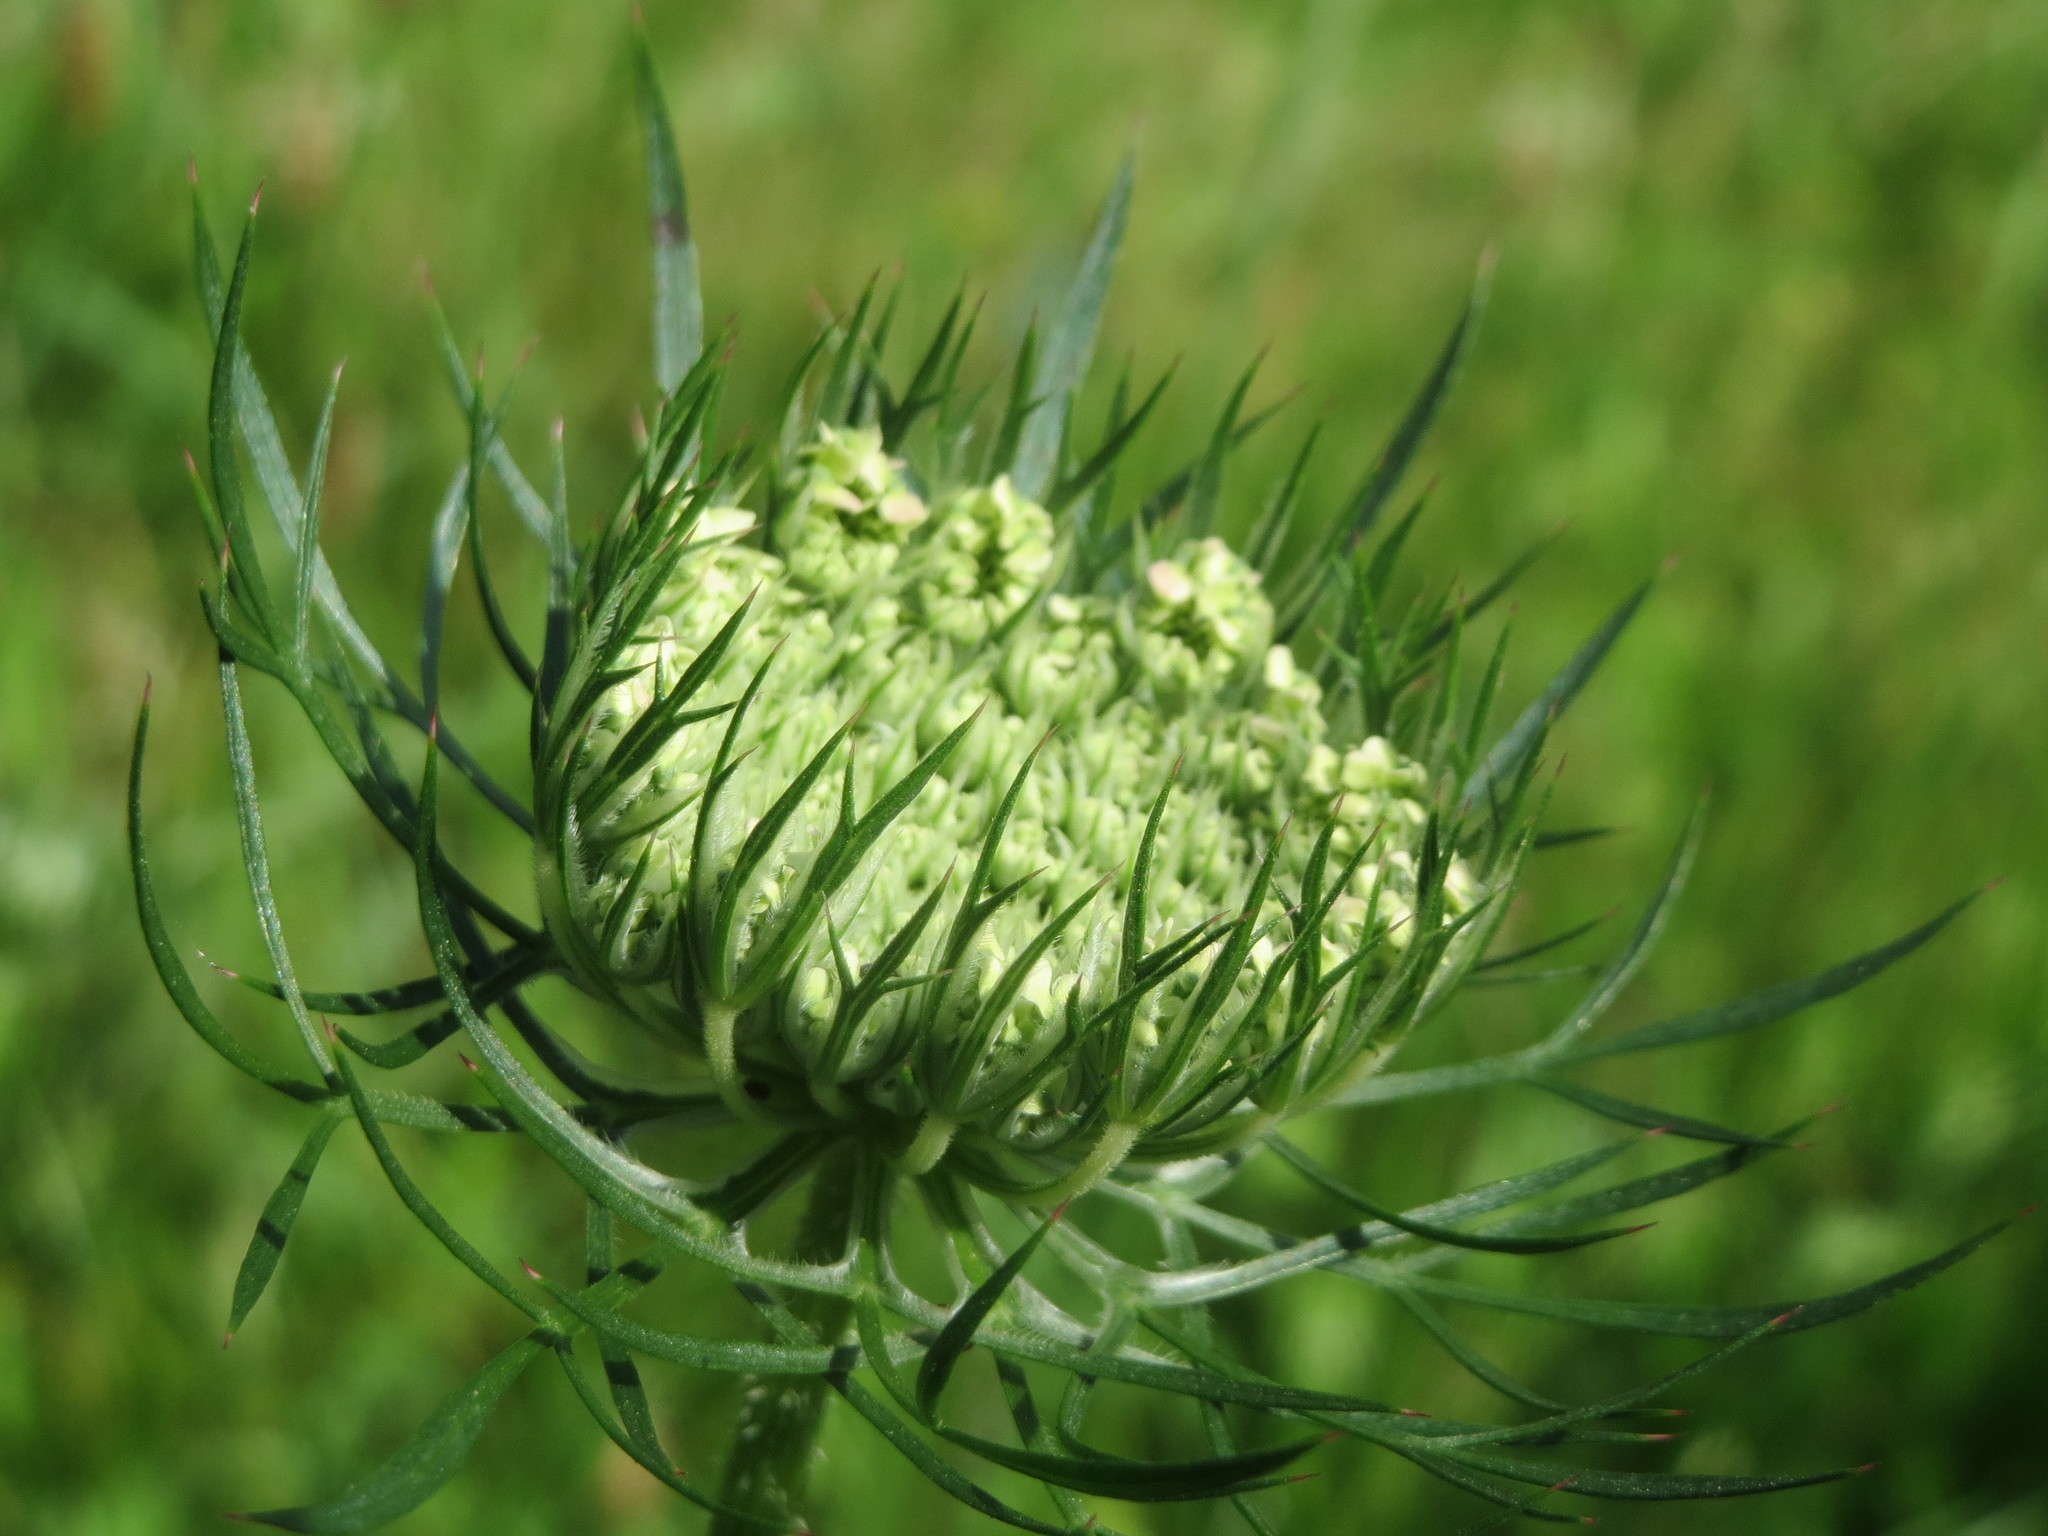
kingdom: Plantae
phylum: Tracheophyta
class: Magnoliopsida
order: Apiales
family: Apiaceae
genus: Daucus
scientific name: Daucus carota
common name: Wild carrot
